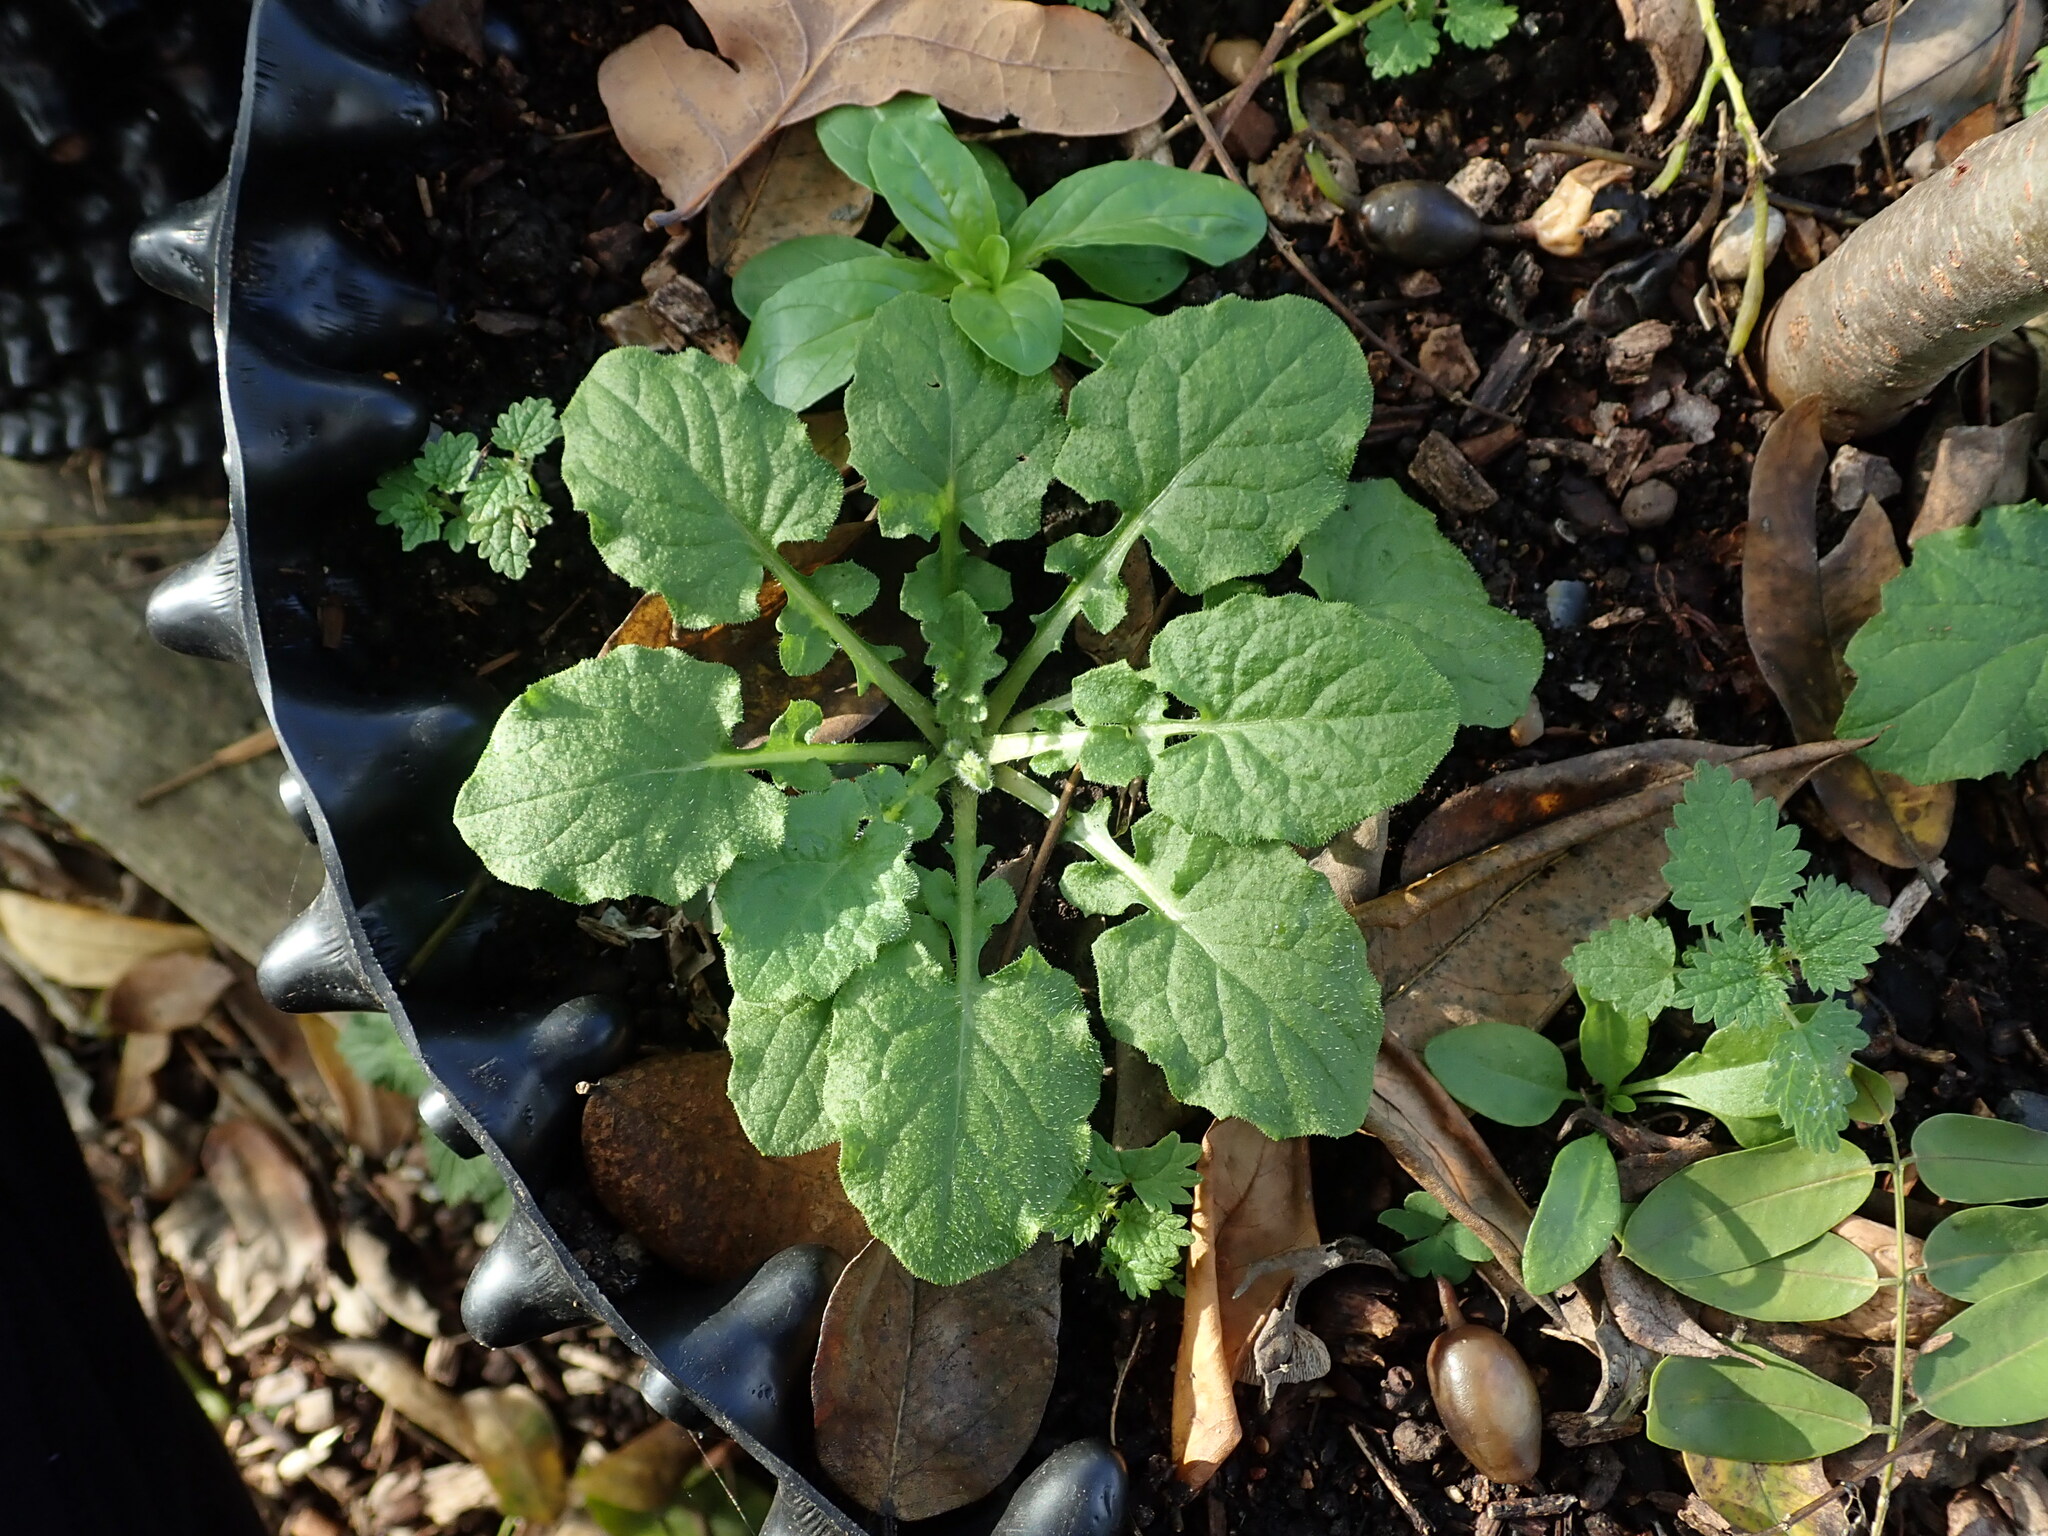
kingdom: Plantae
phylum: Tracheophyta
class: Magnoliopsida
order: Asterales
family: Asteraceae
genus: Lapsana
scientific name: Lapsana communis
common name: Nipplewort
